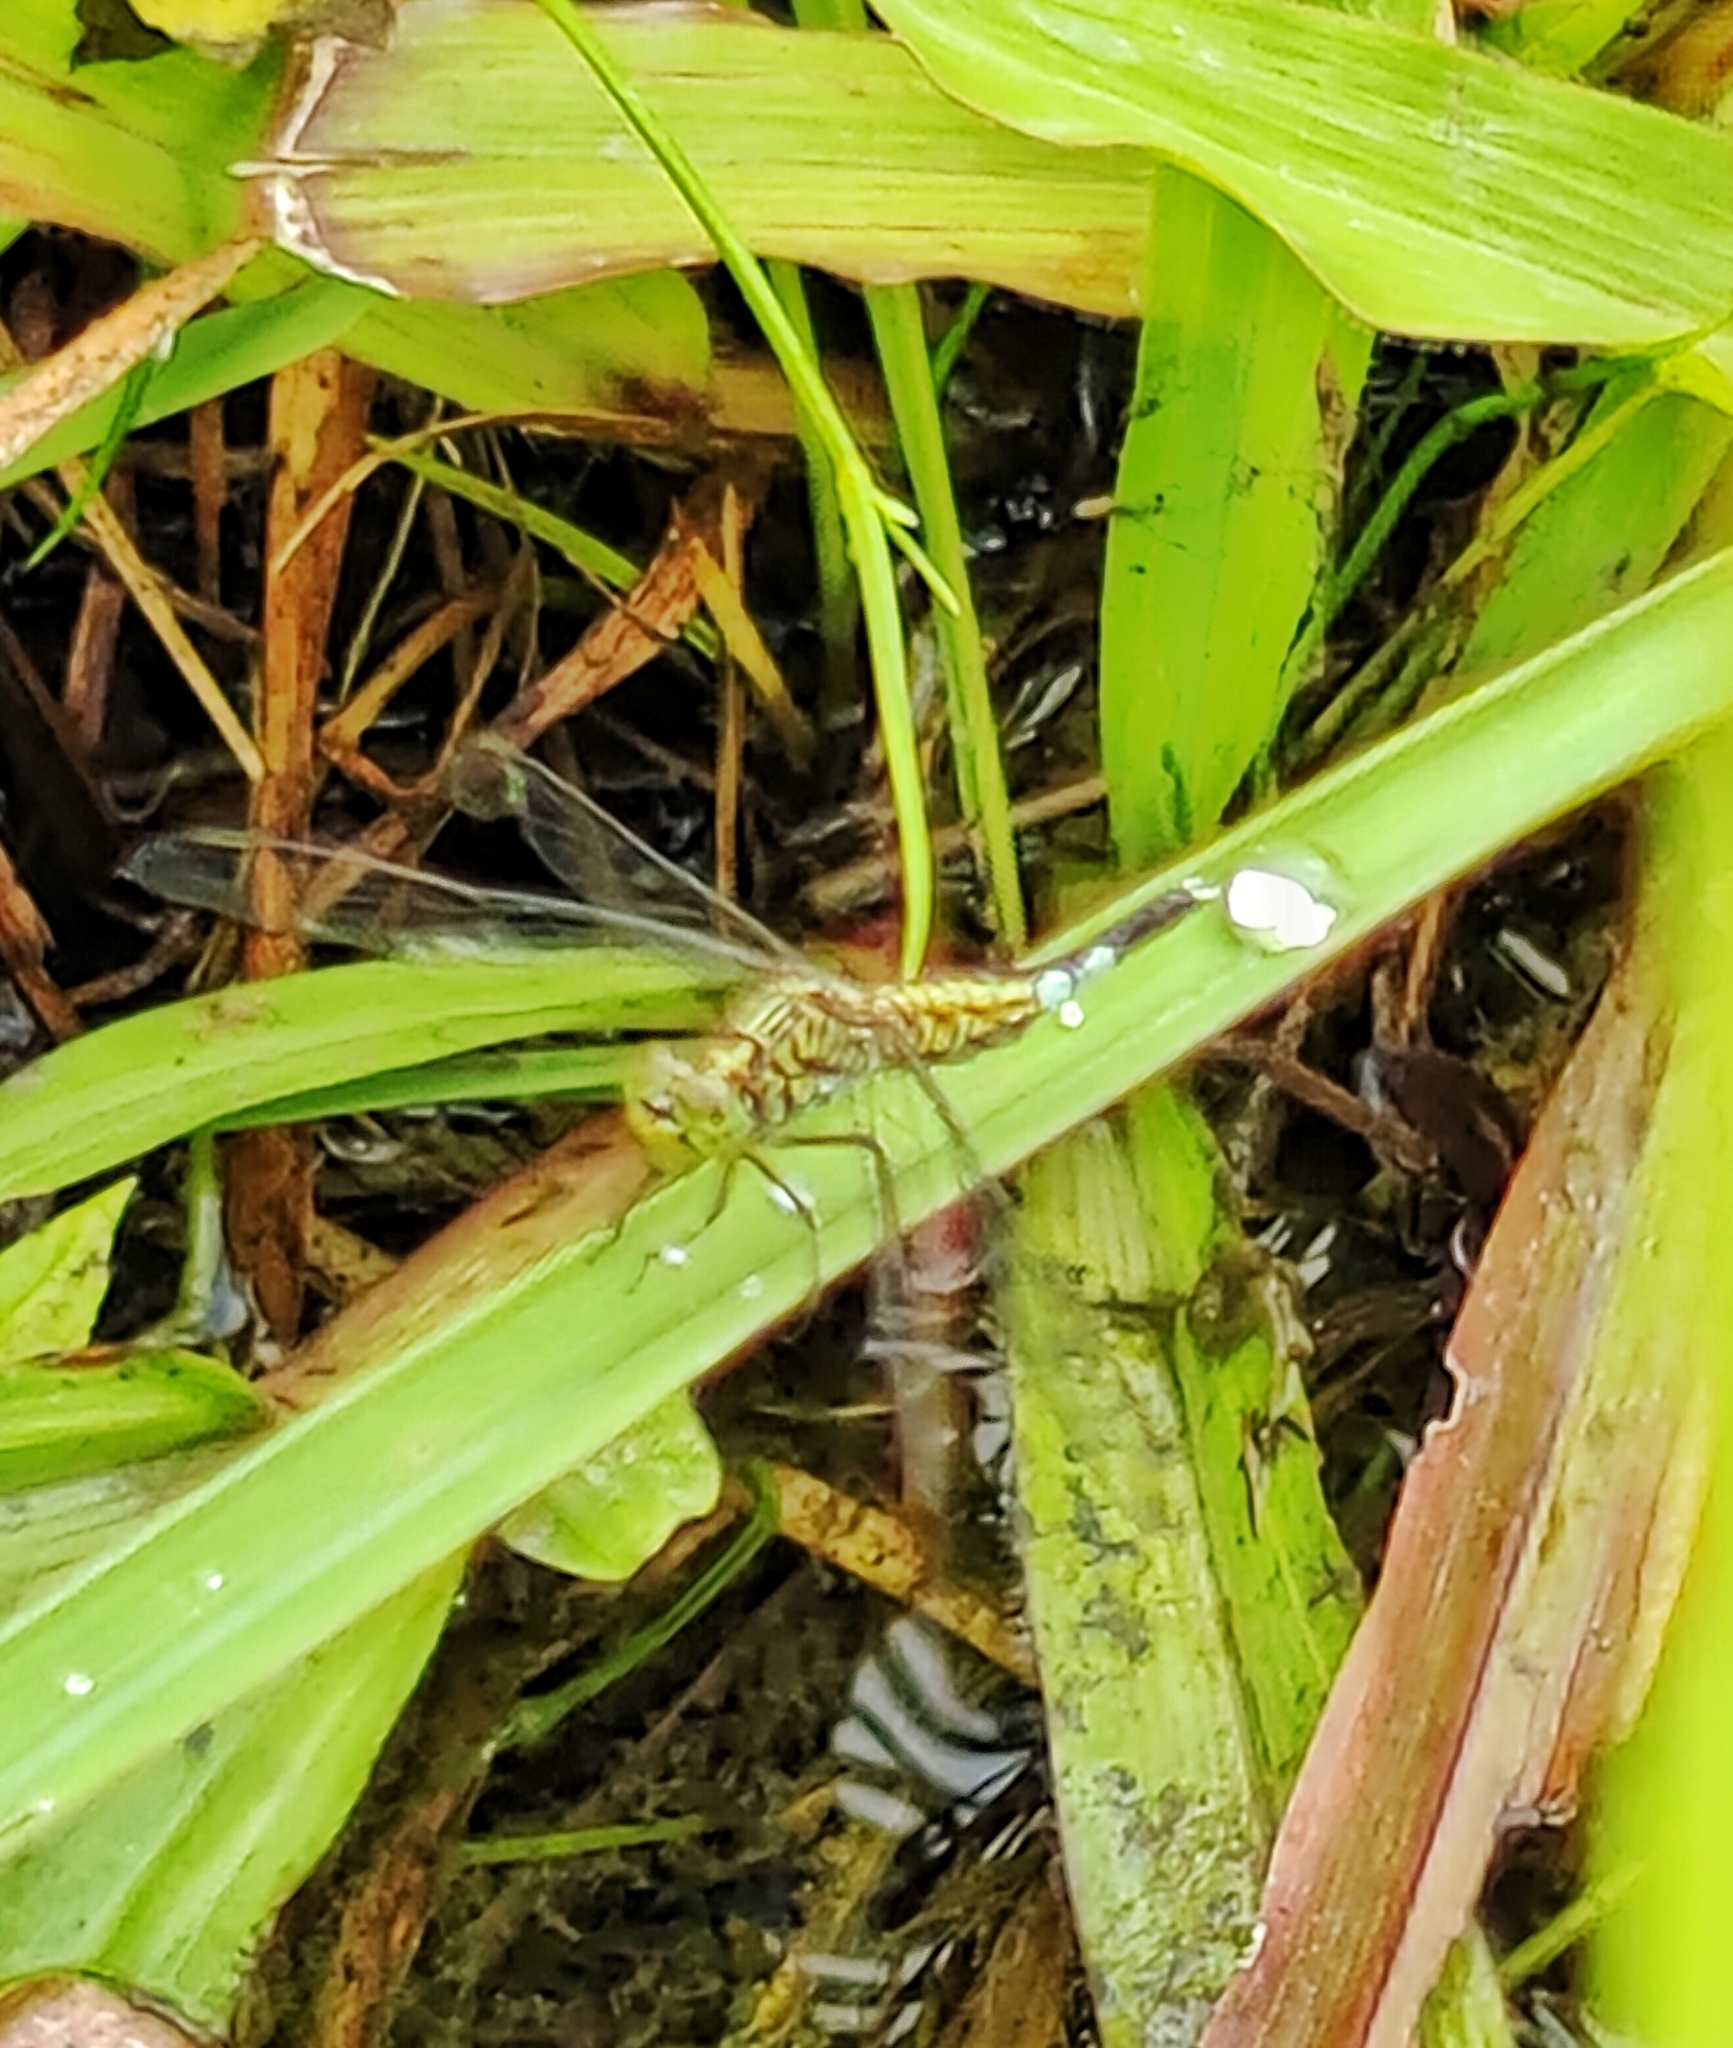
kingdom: Animalia
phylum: Arthropoda
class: Insecta
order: Odonata
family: Libellulidae
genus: Acisoma
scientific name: Acisoma panorpoides
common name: Asian pintail
